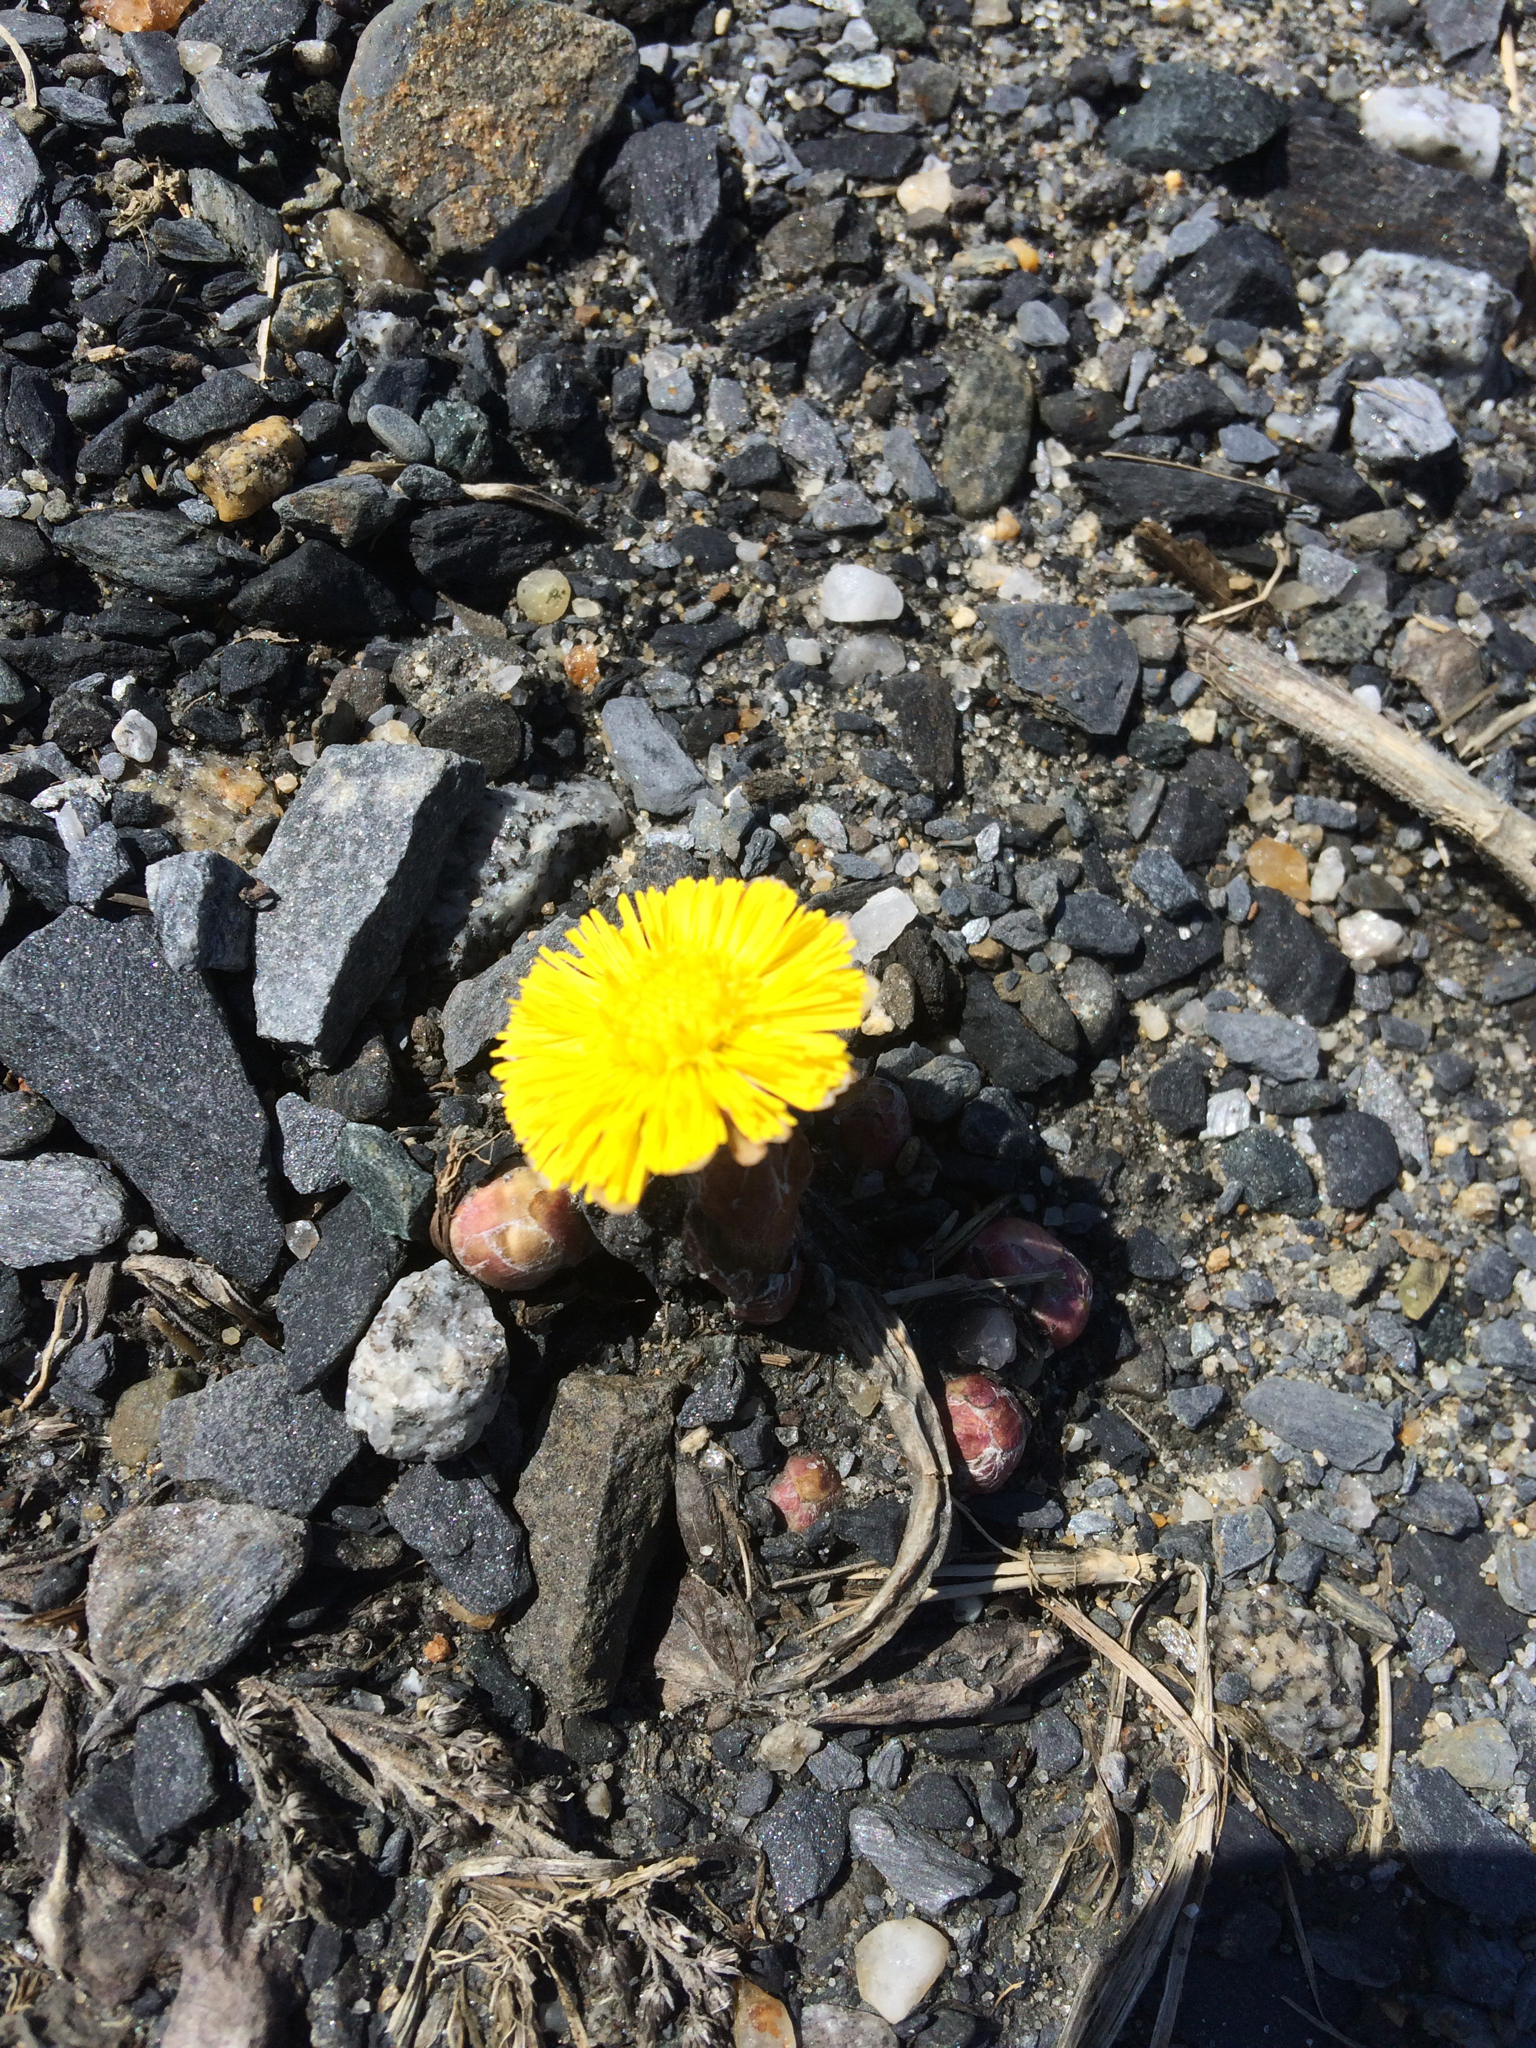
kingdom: Plantae
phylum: Tracheophyta
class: Magnoliopsida
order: Asterales
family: Asteraceae
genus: Tussilago
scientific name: Tussilago farfara
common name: Coltsfoot
